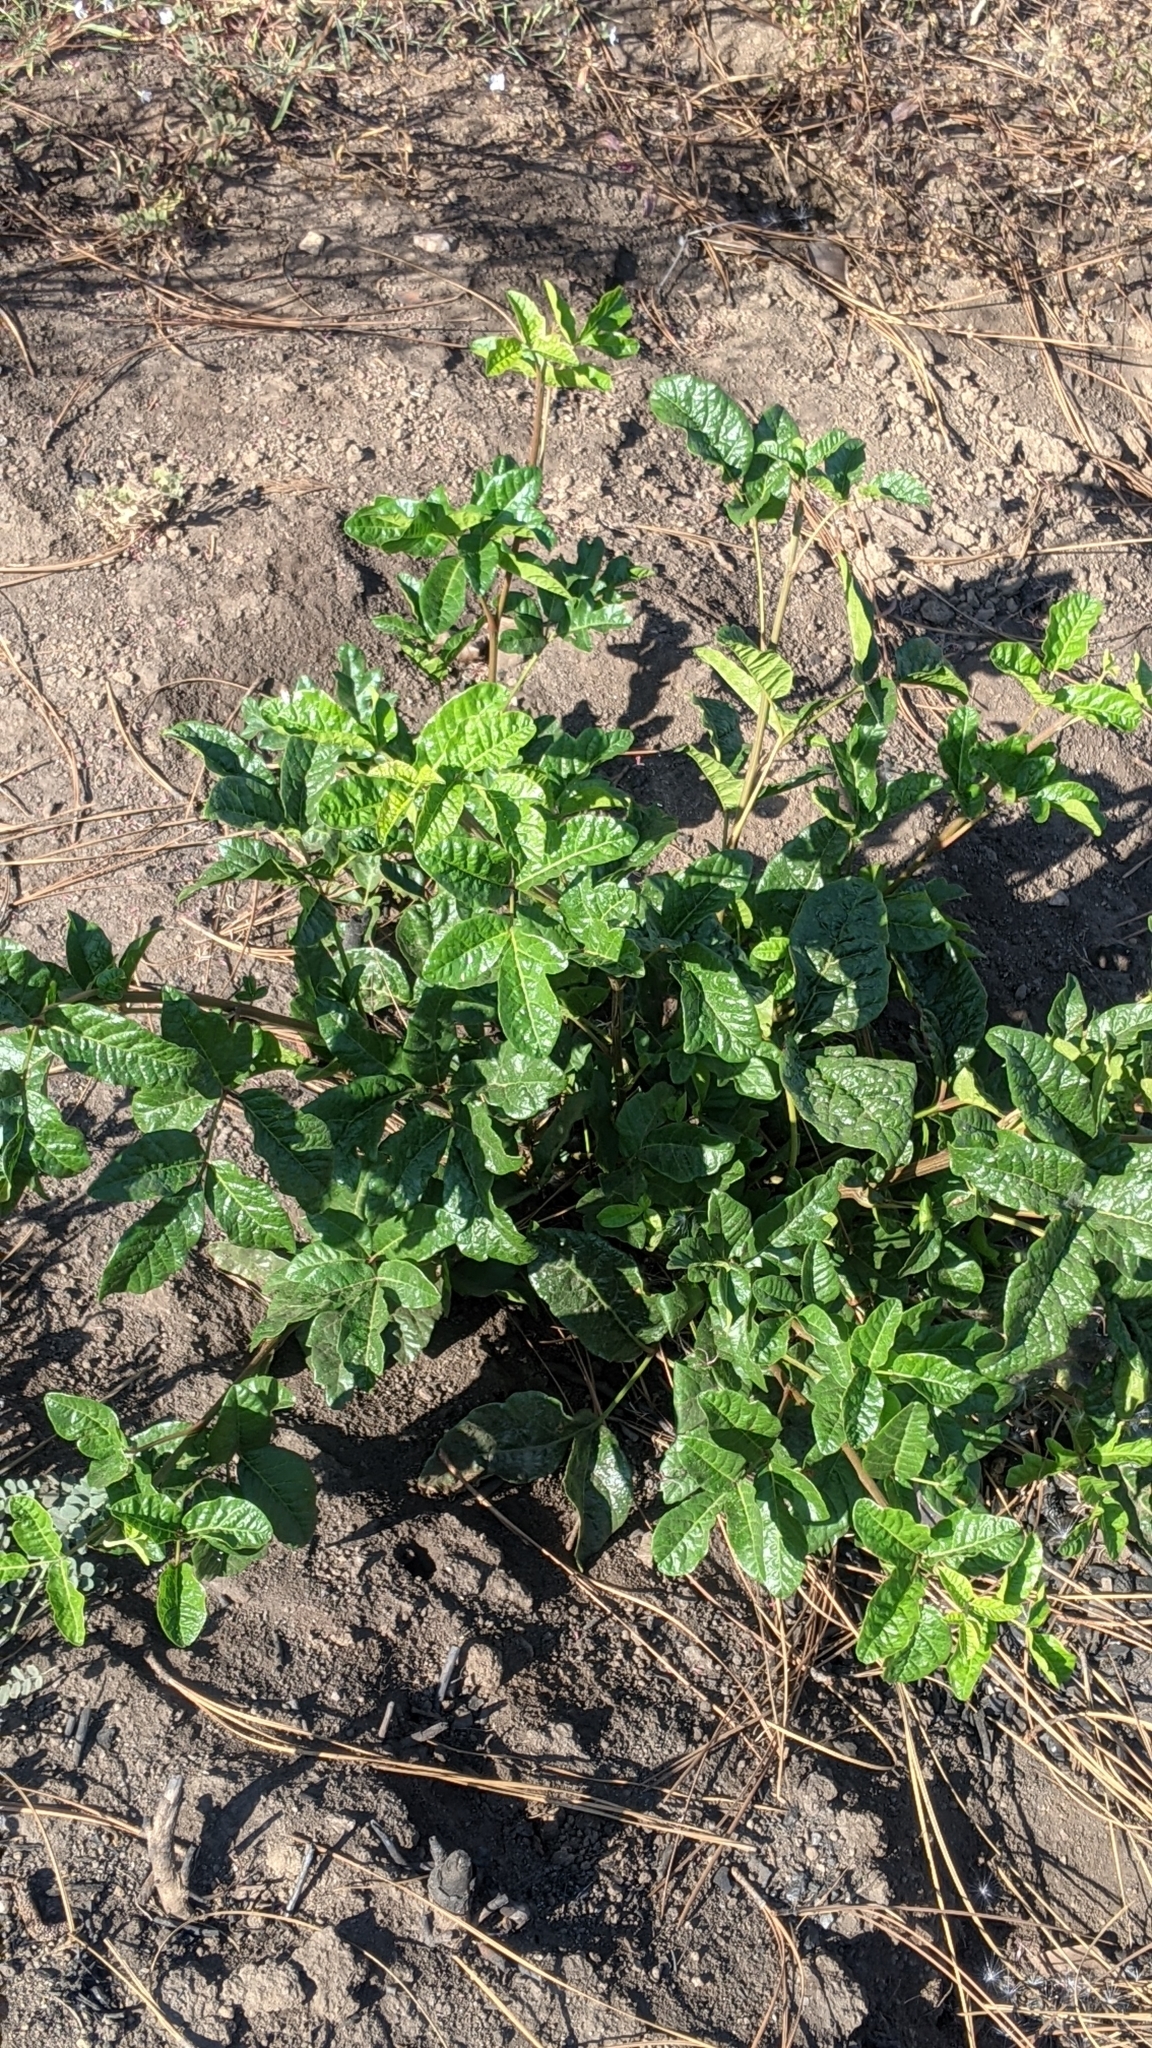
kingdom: Plantae
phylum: Tracheophyta
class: Magnoliopsida
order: Sapindales
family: Anacardiaceae
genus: Toxicodendron
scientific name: Toxicodendron diversilobum
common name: Pacific poison-oak
